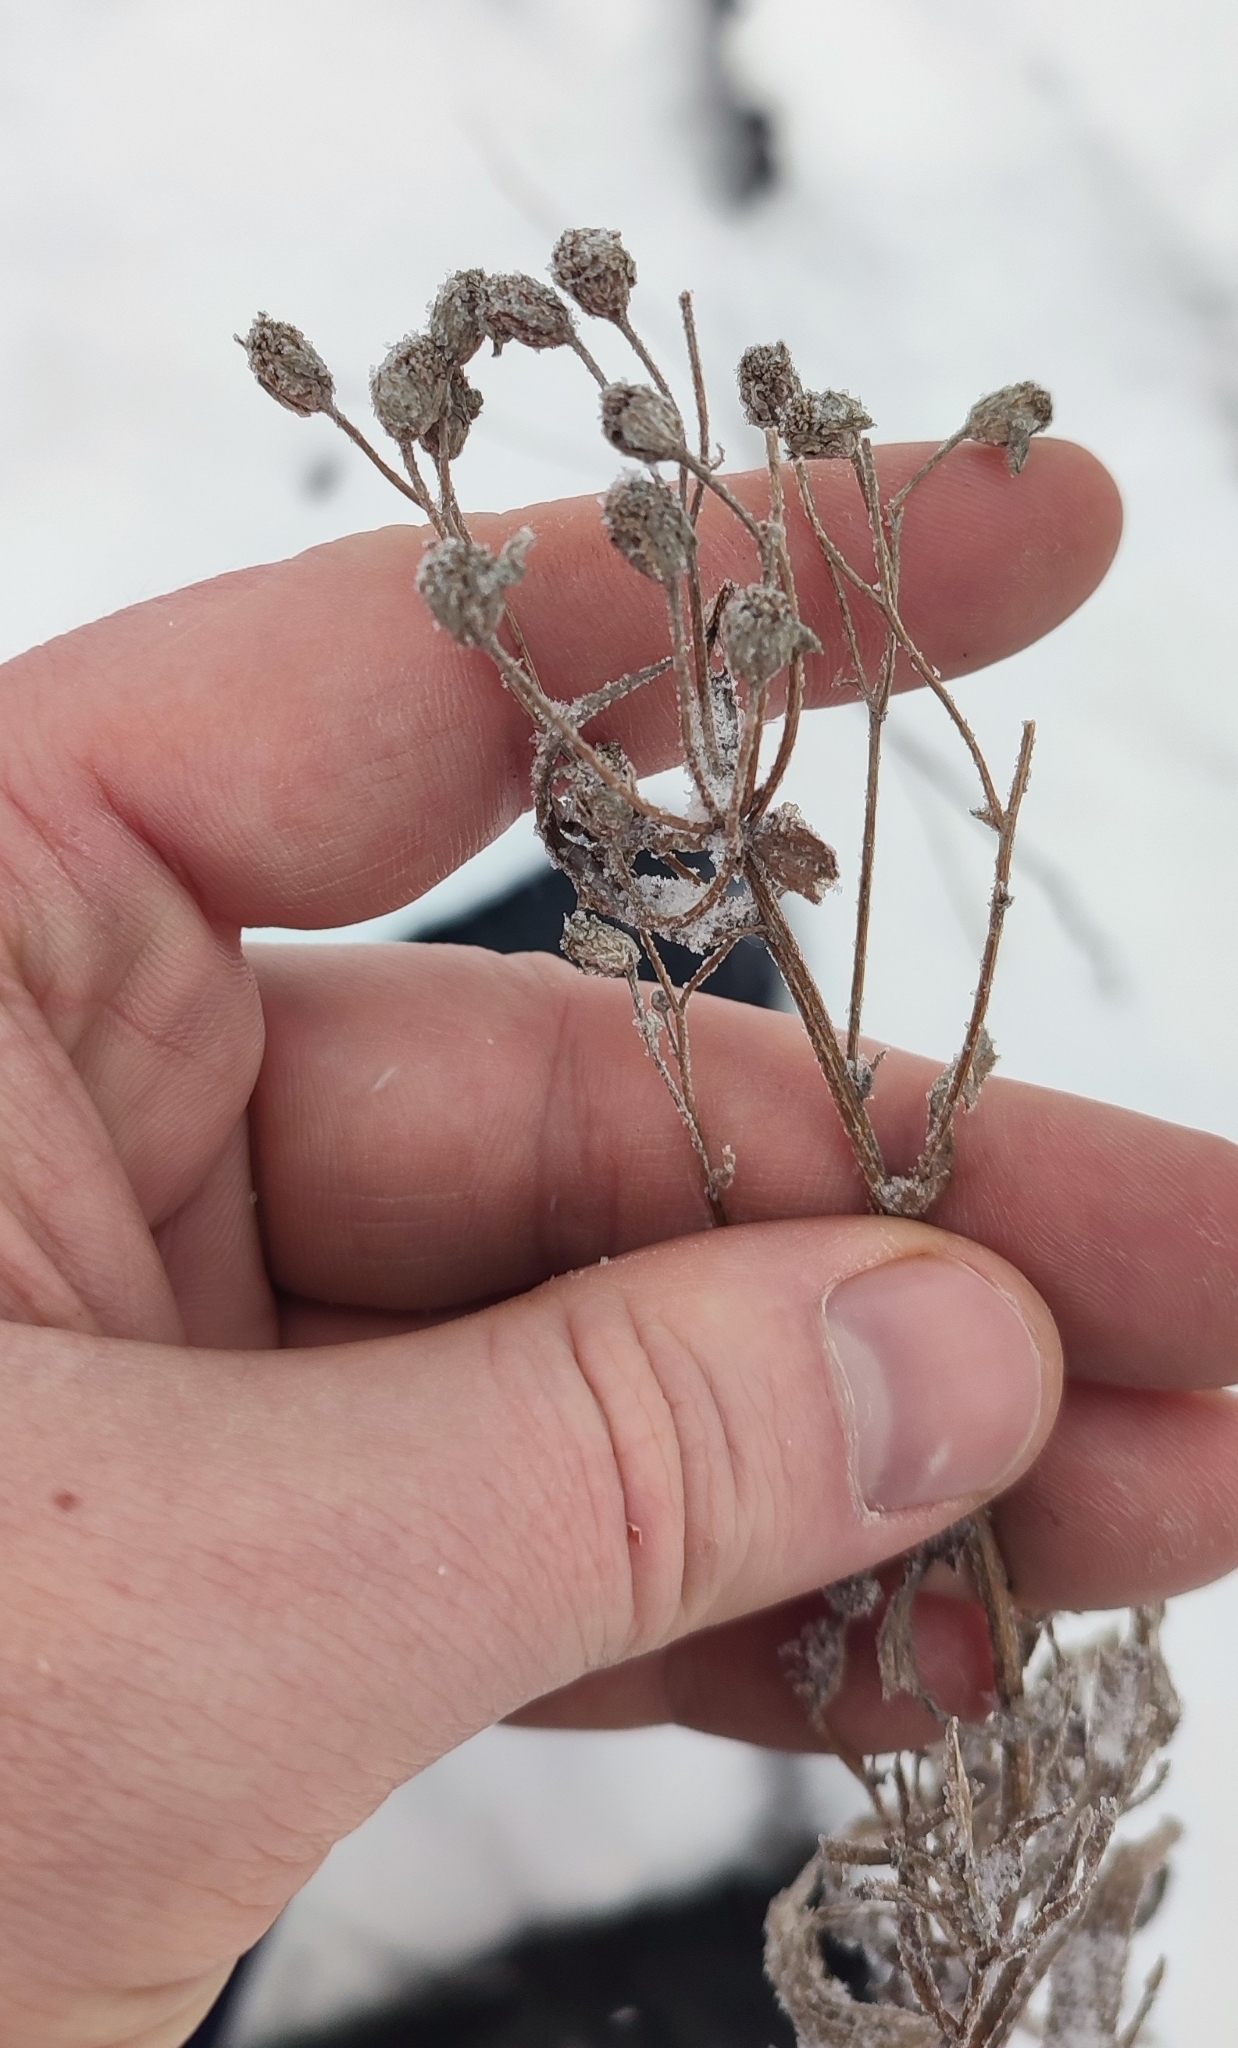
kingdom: Plantae
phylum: Tracheophyta
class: Magnoliopsida
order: Asterales
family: Asteraceae
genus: Achillea
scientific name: Achillea salicifolia
